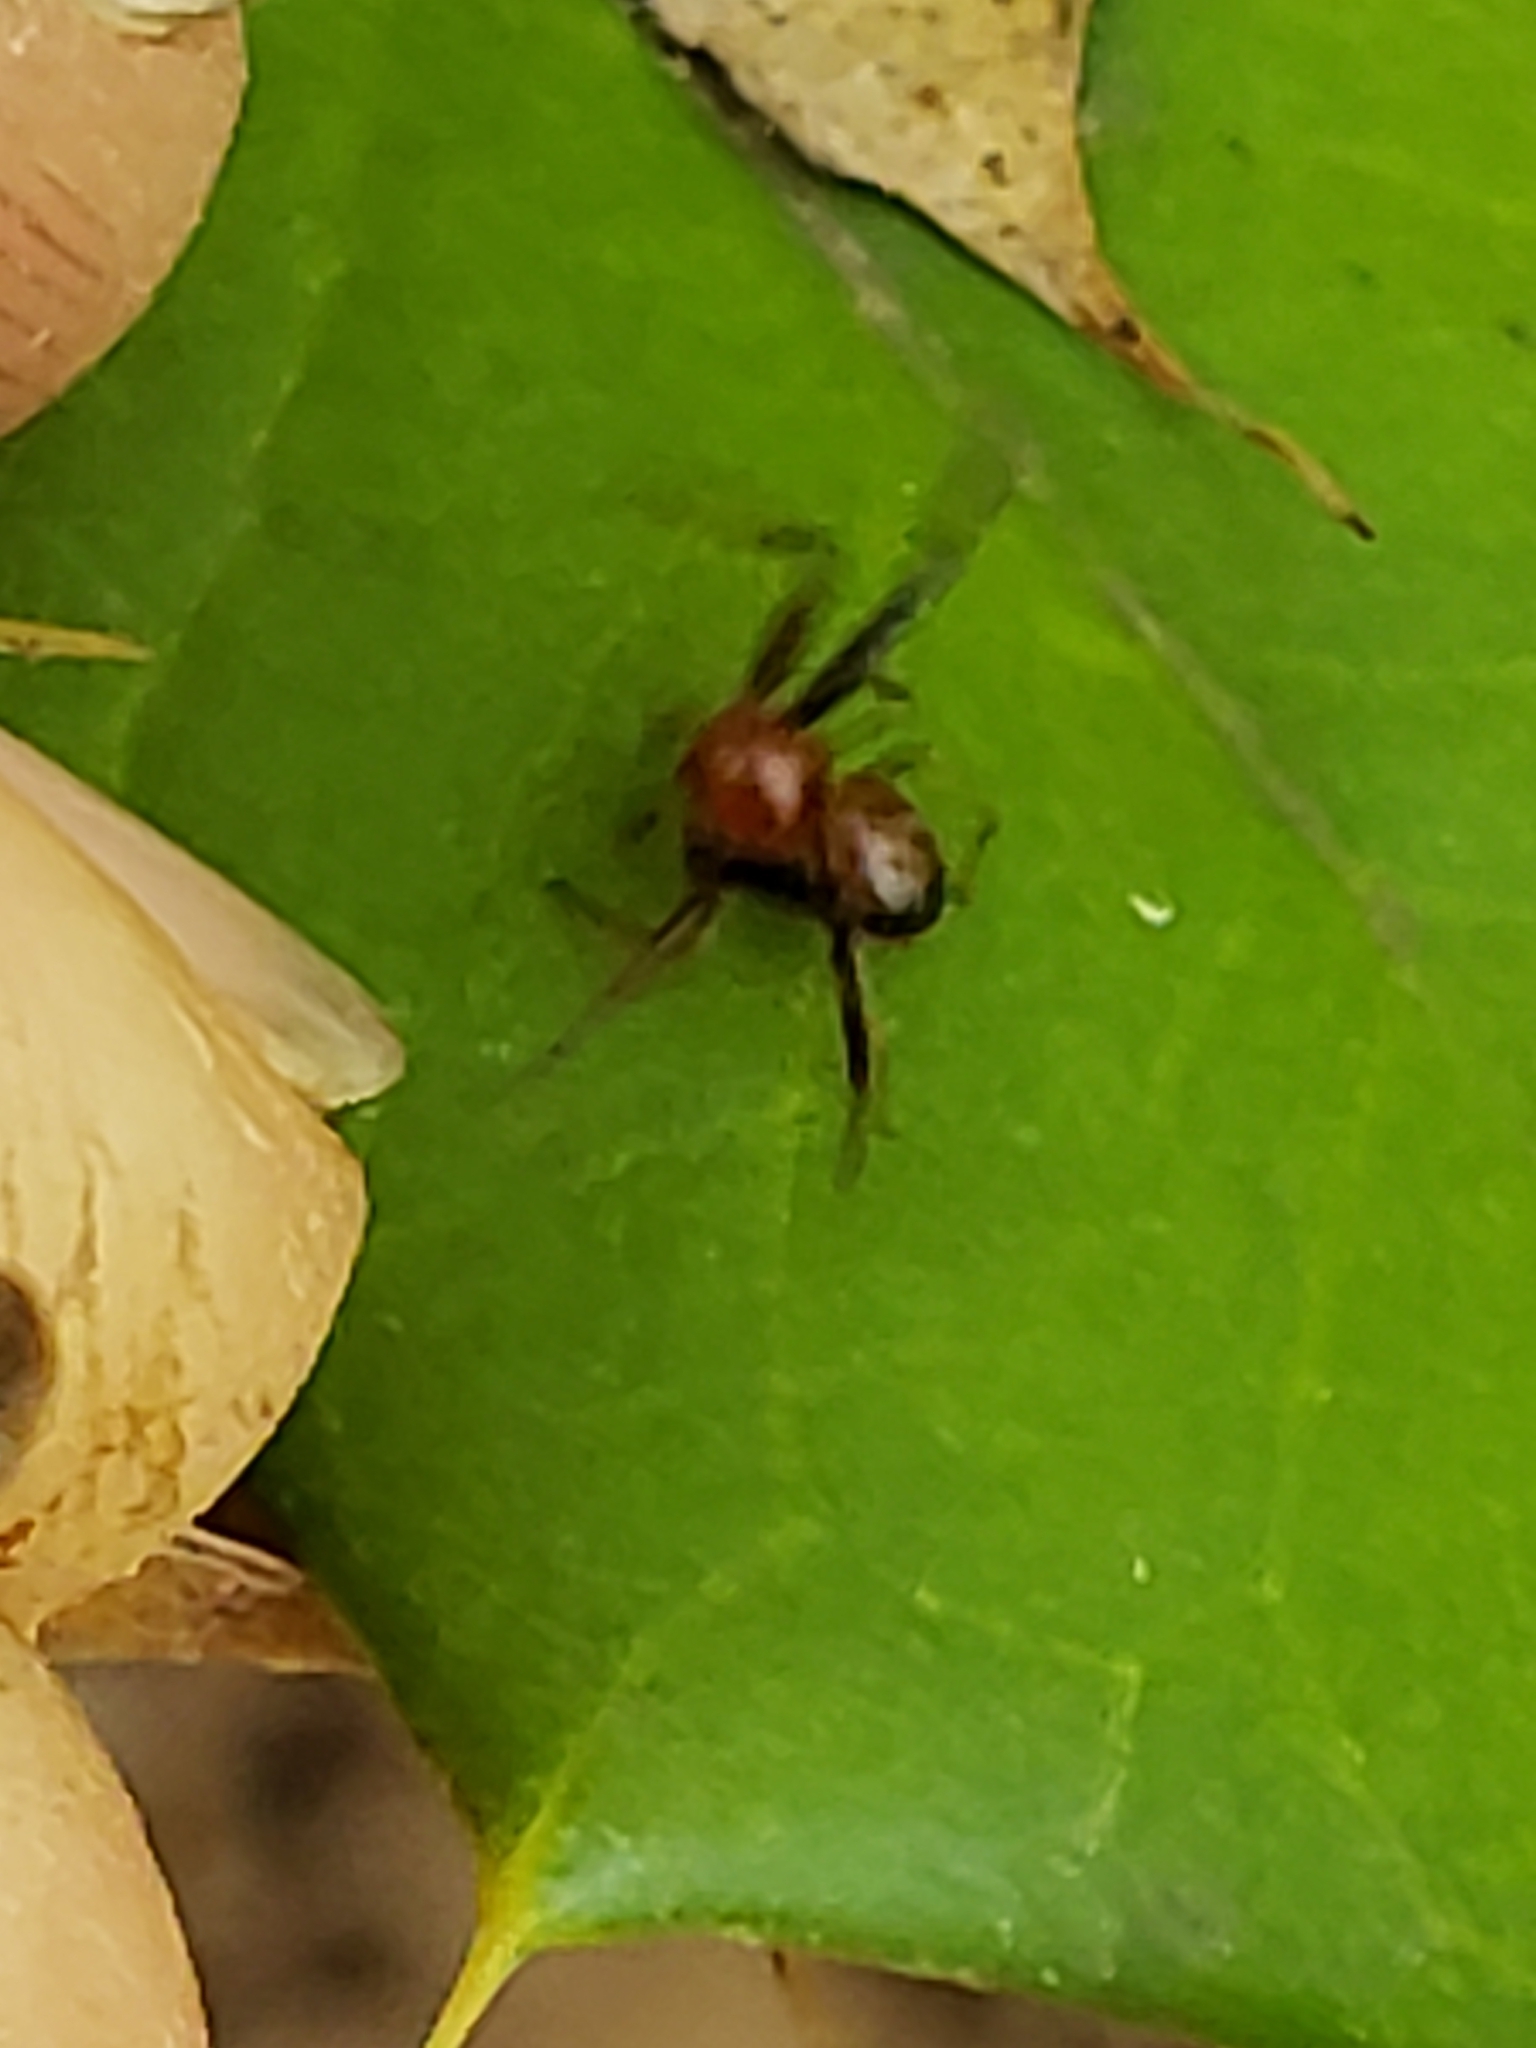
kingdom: Animalia
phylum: Arthropoda
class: Arachnida
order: Araneae
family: Thomisidae
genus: Synema
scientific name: Synema parvulum
